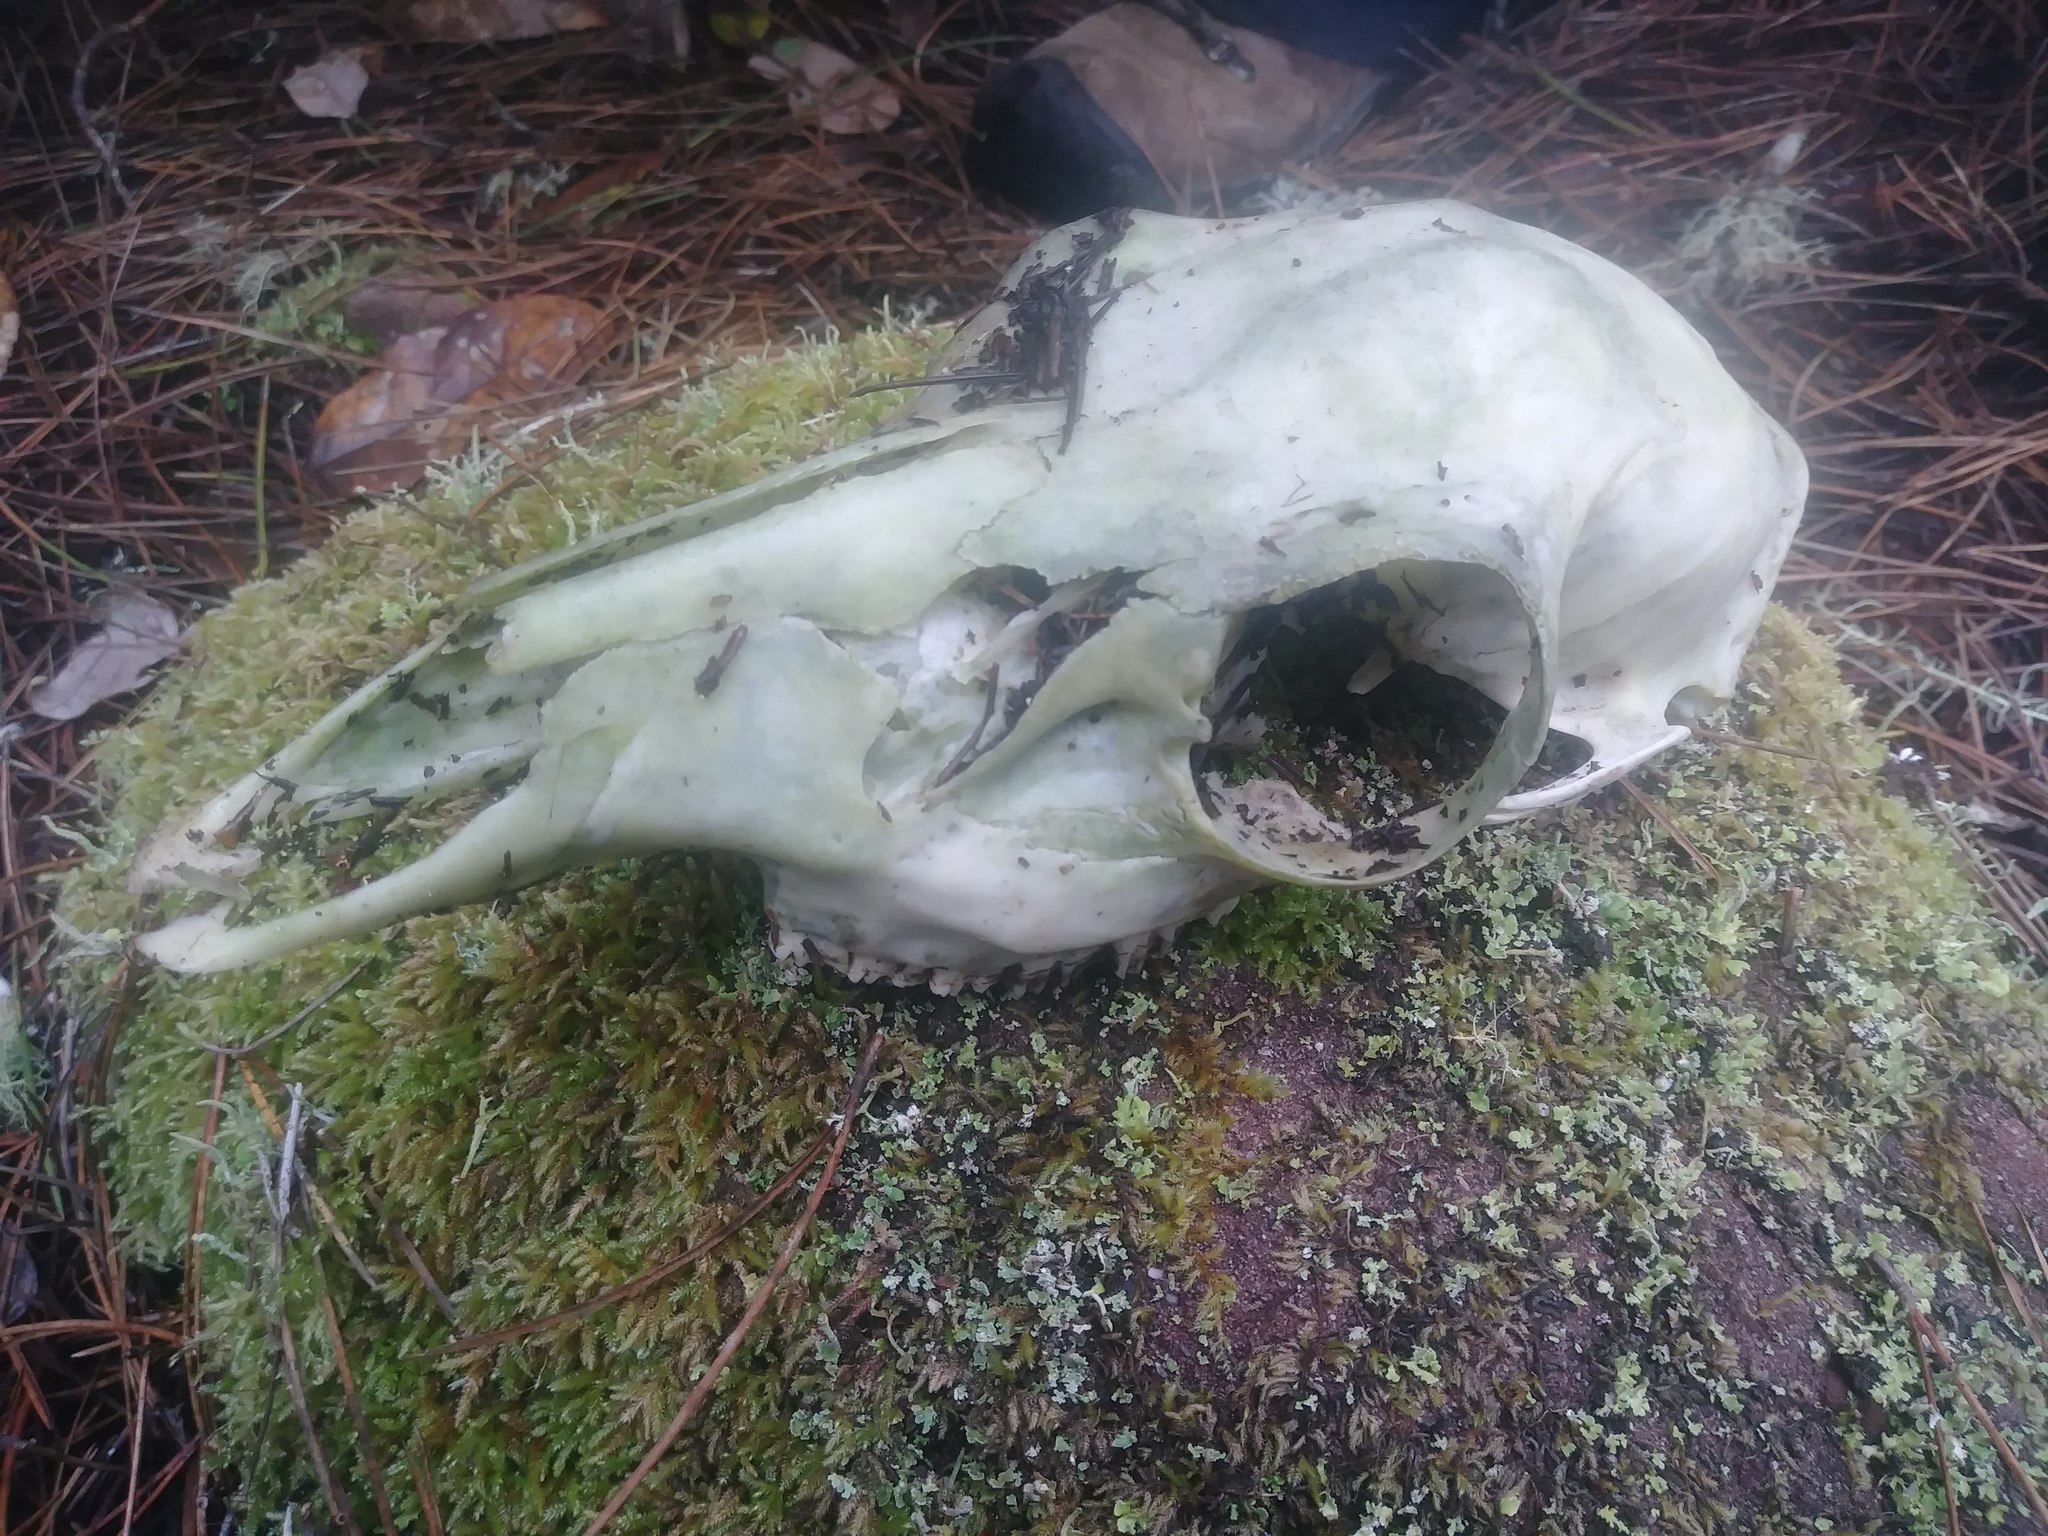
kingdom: Animalia
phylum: Chordata
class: Mammalia
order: Artiodactyla
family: Cervidae
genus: Odocoileus
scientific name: Odocoileus hemionus
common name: Mule deer
